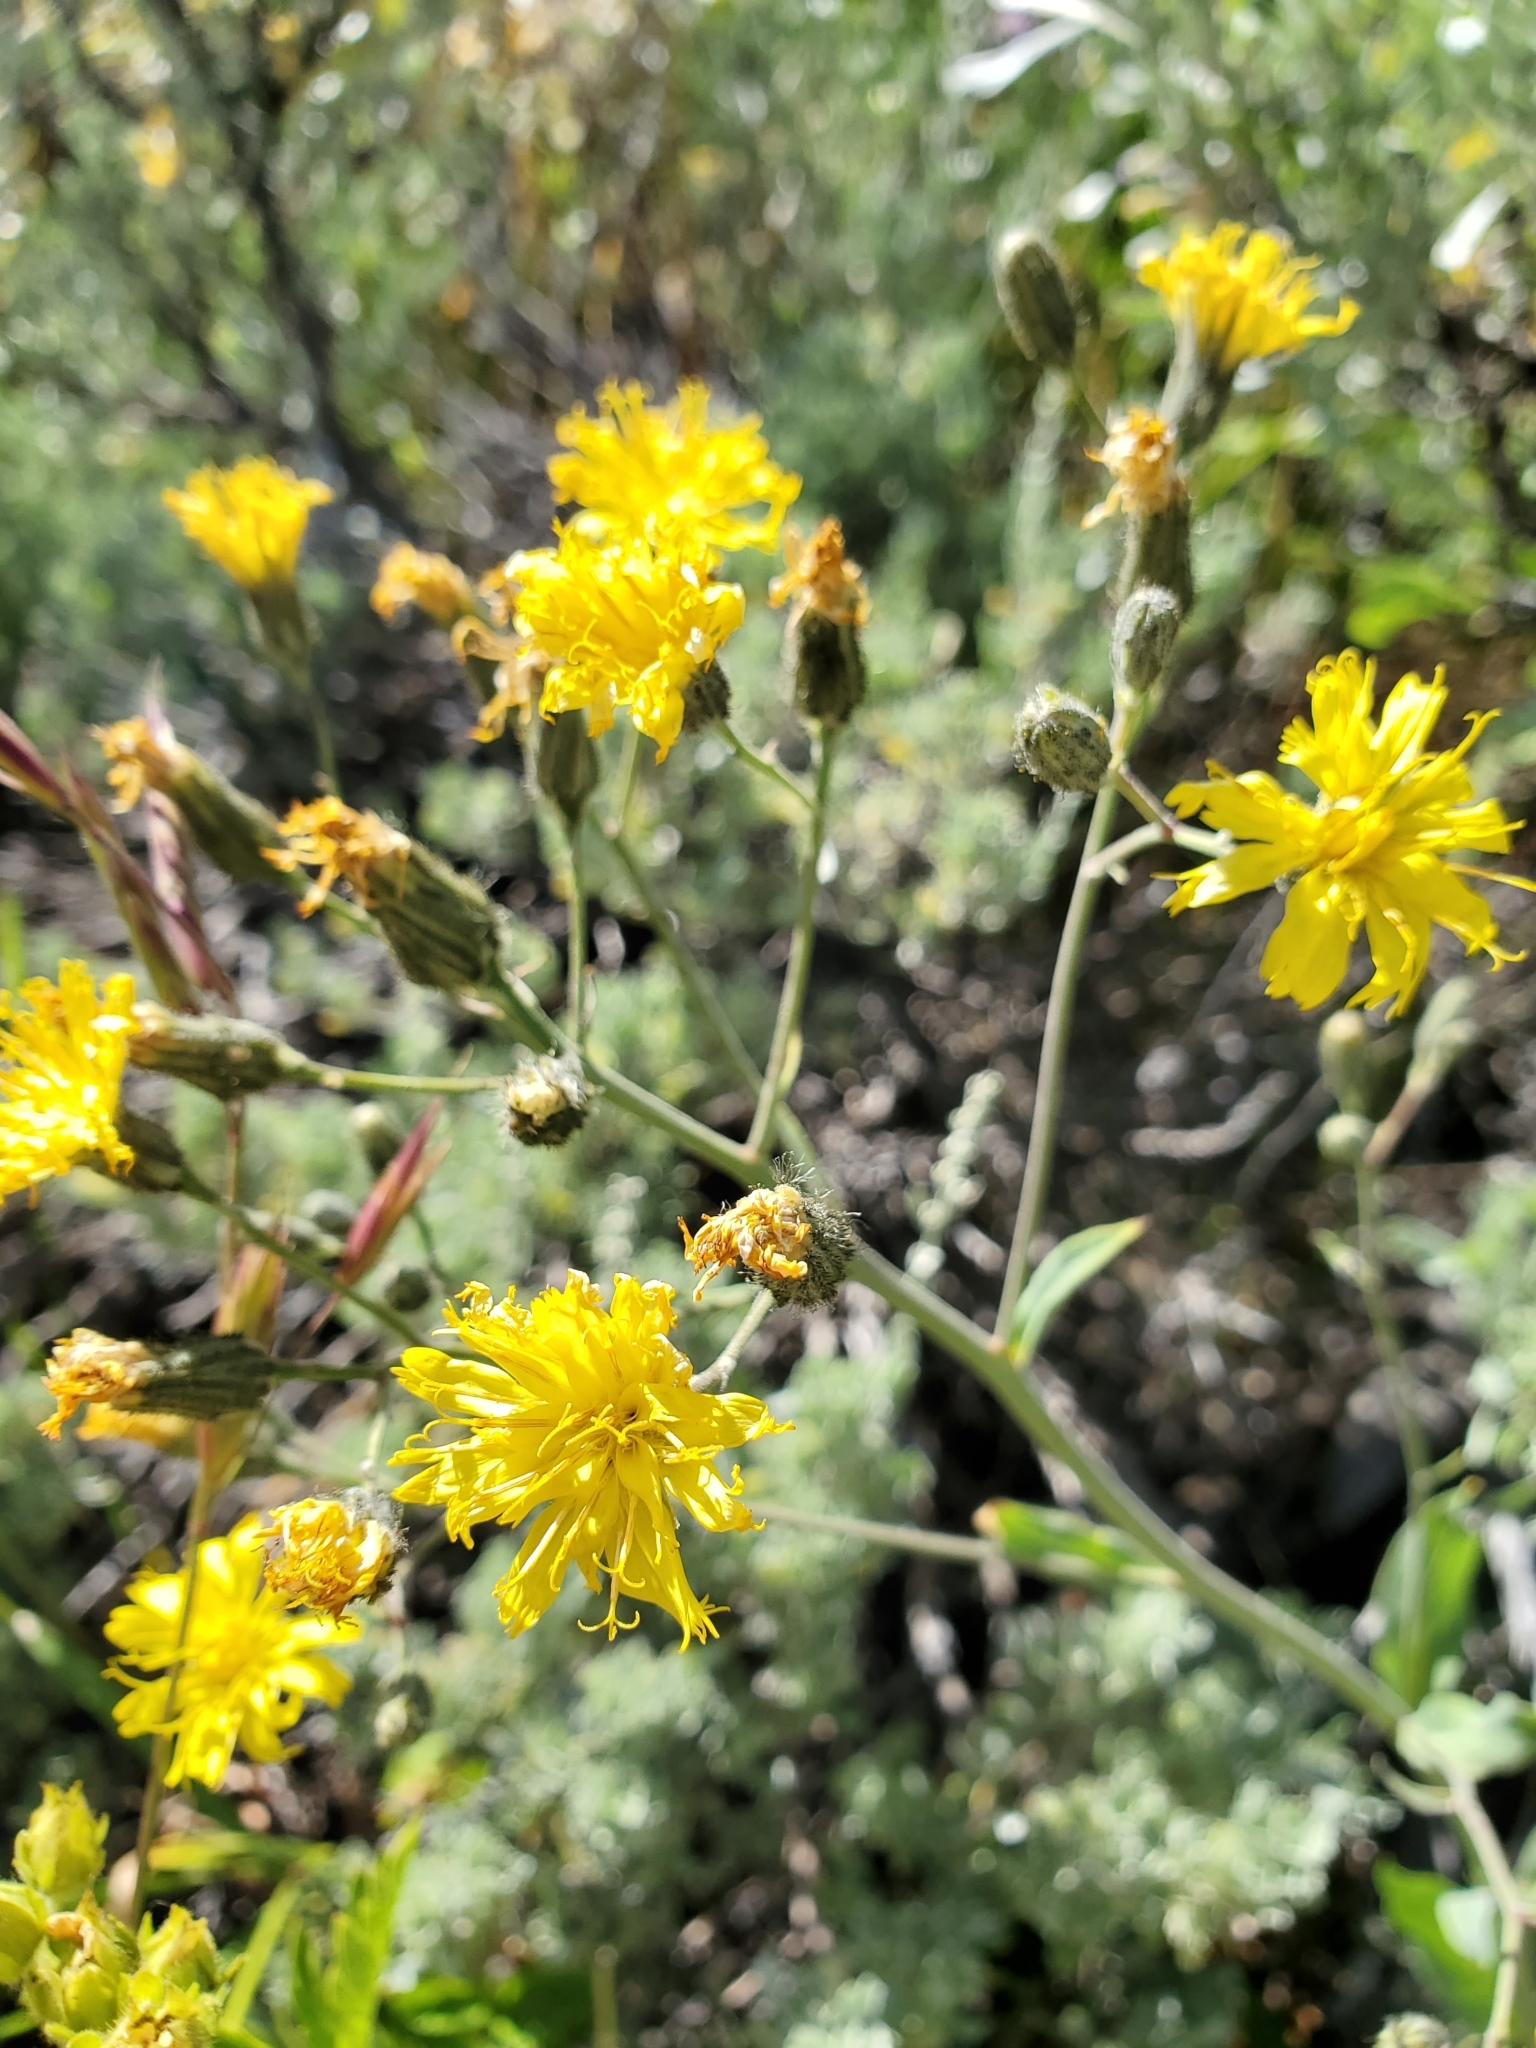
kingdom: Plantae
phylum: Tracheophyta
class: Magnoliopsida
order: Asterales
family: Asteraceae
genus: Crepis
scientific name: Crepis tectorum
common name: Narrow-leaved hawk's-beard
